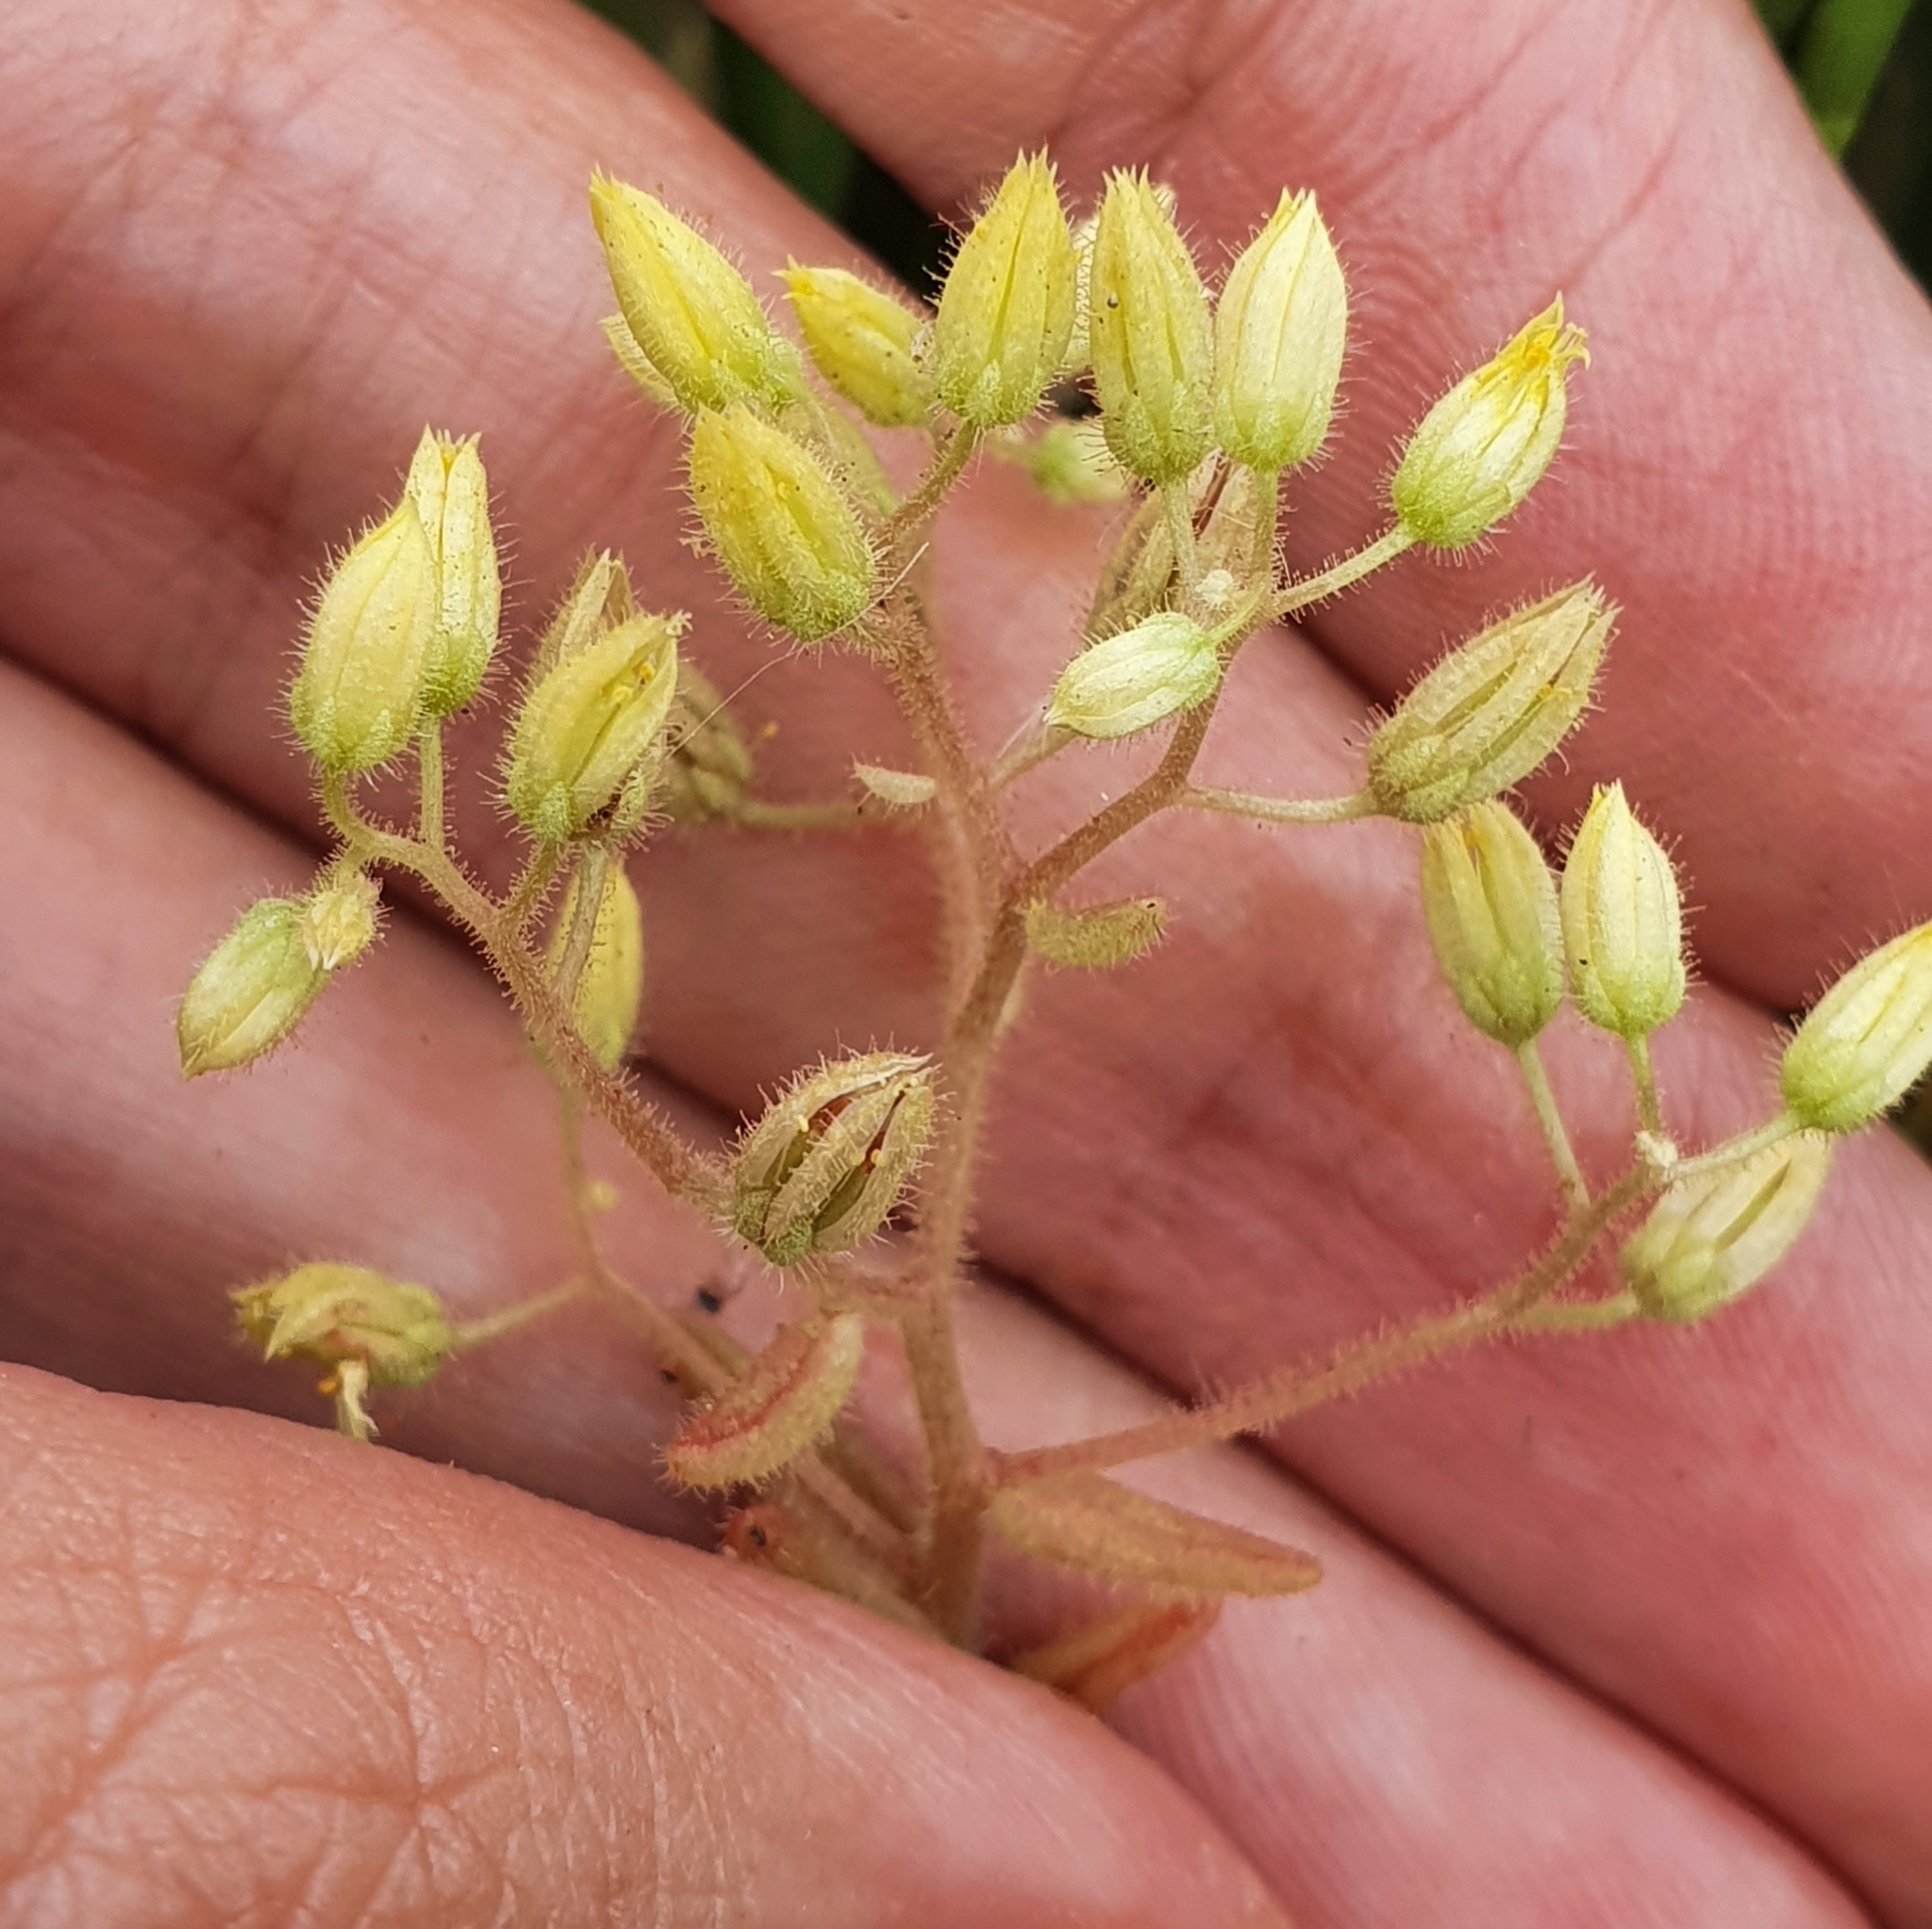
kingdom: Plantae
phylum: Tracheophyta
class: Magnoliopsida
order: Saxifragales
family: Crassulaceae
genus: Sedum
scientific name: Sedum pubescens
